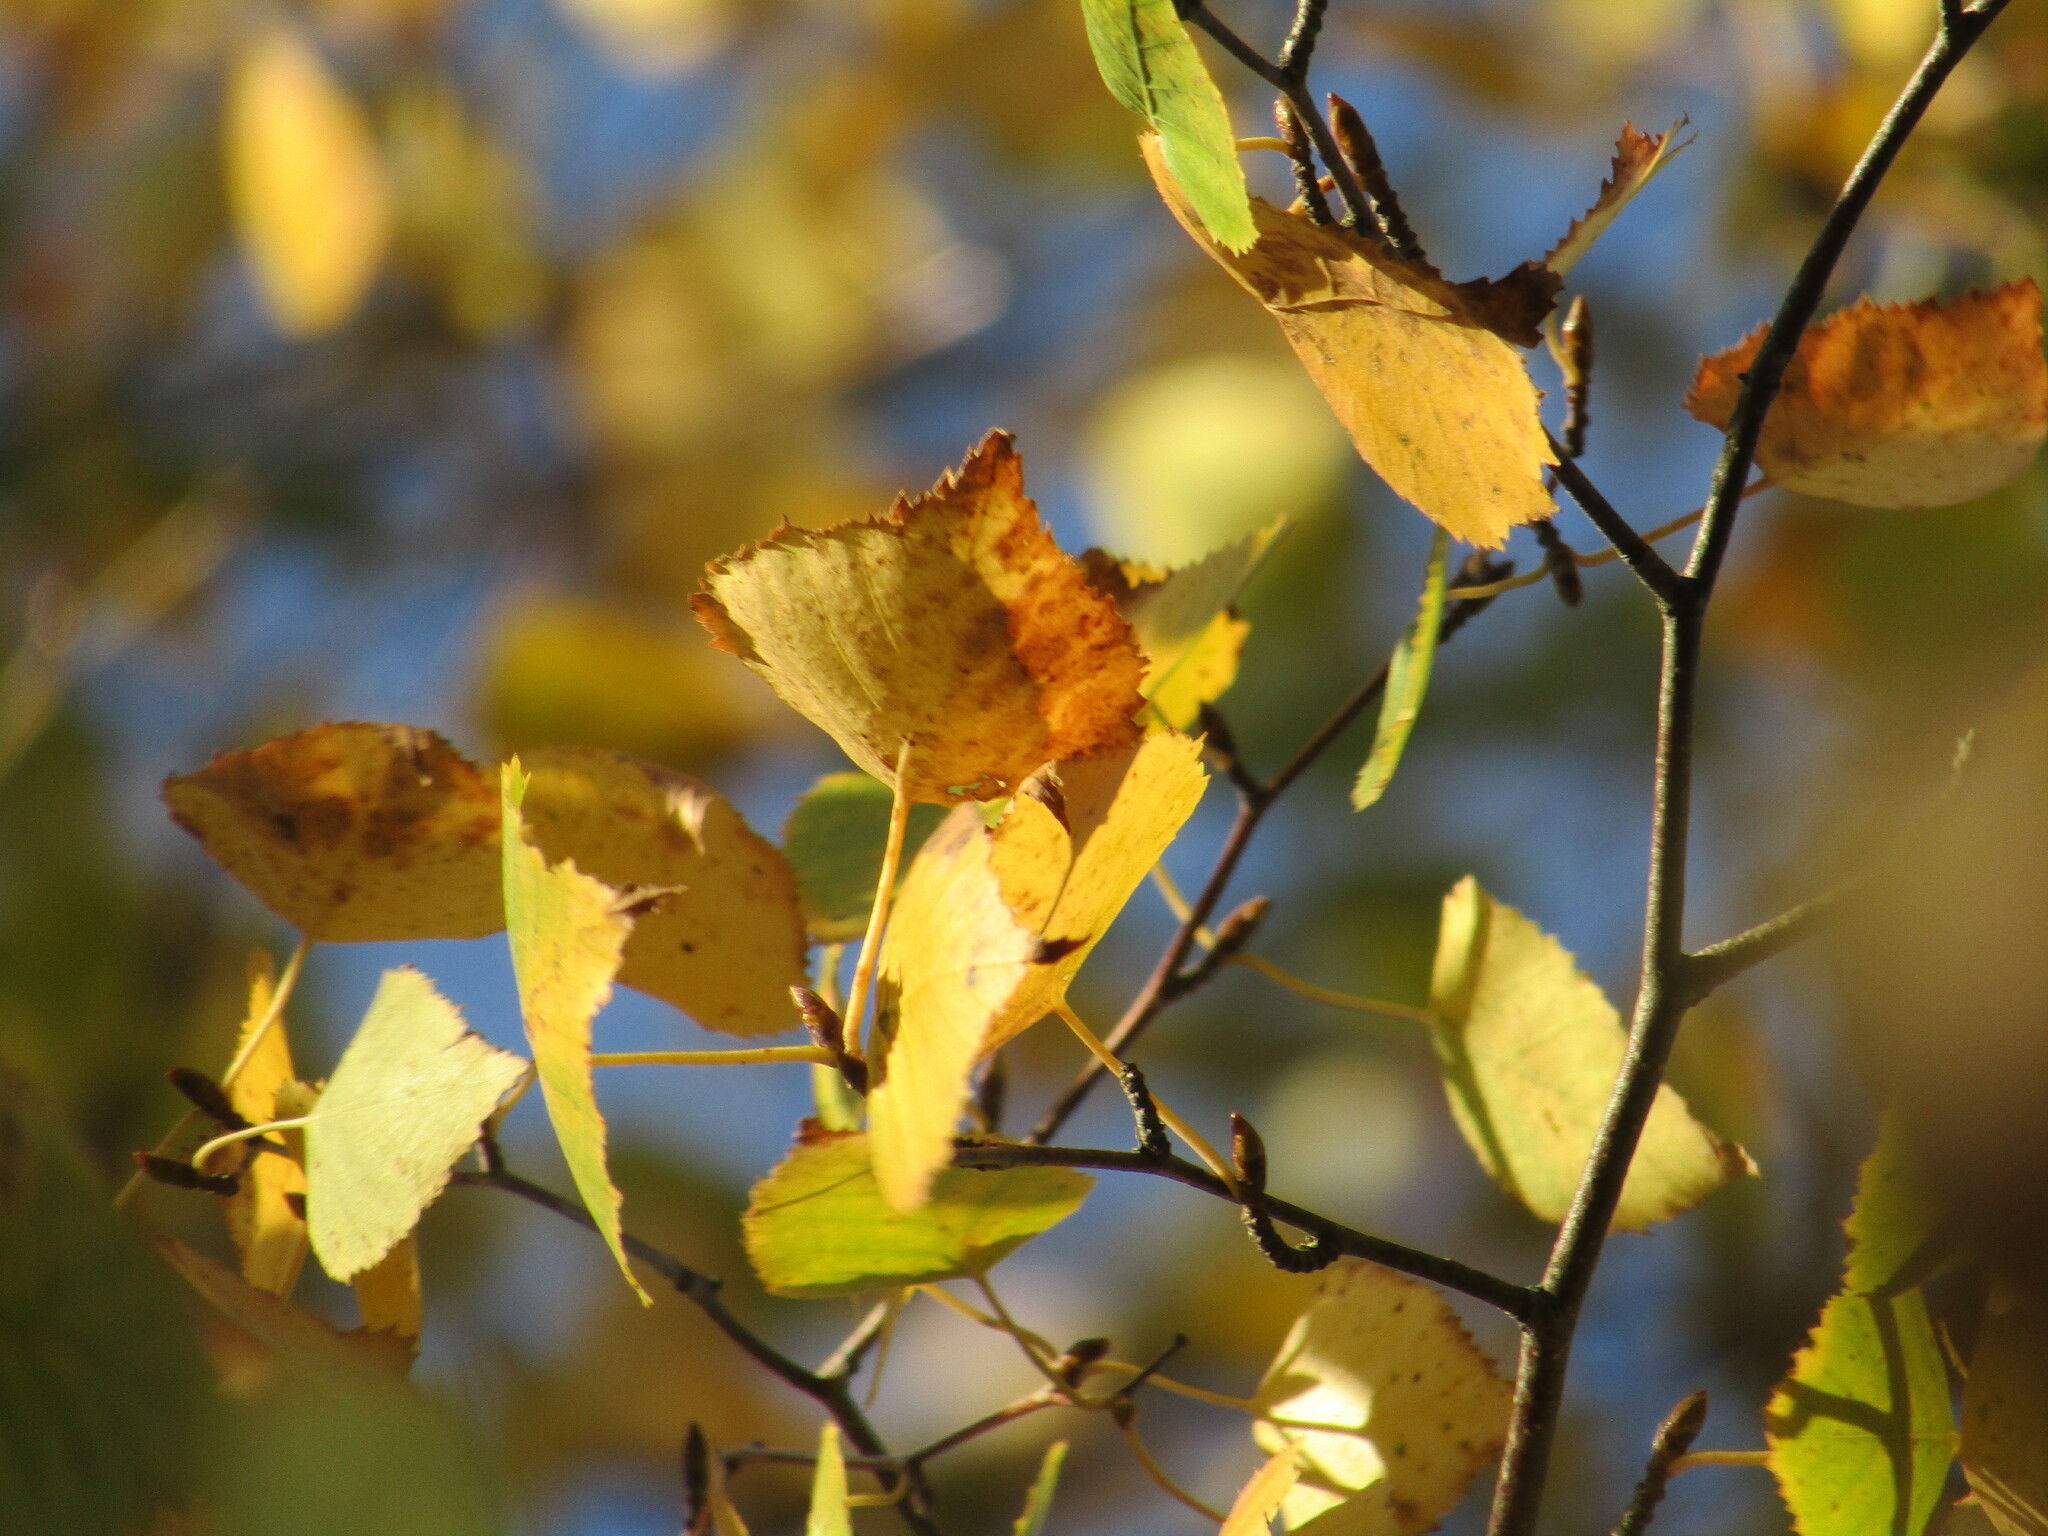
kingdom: Plantae
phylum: Tracheophyta
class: Magnoliopsida
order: Fagales
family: Betulaceae
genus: Betula
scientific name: Betula pendula
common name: Silver birch
